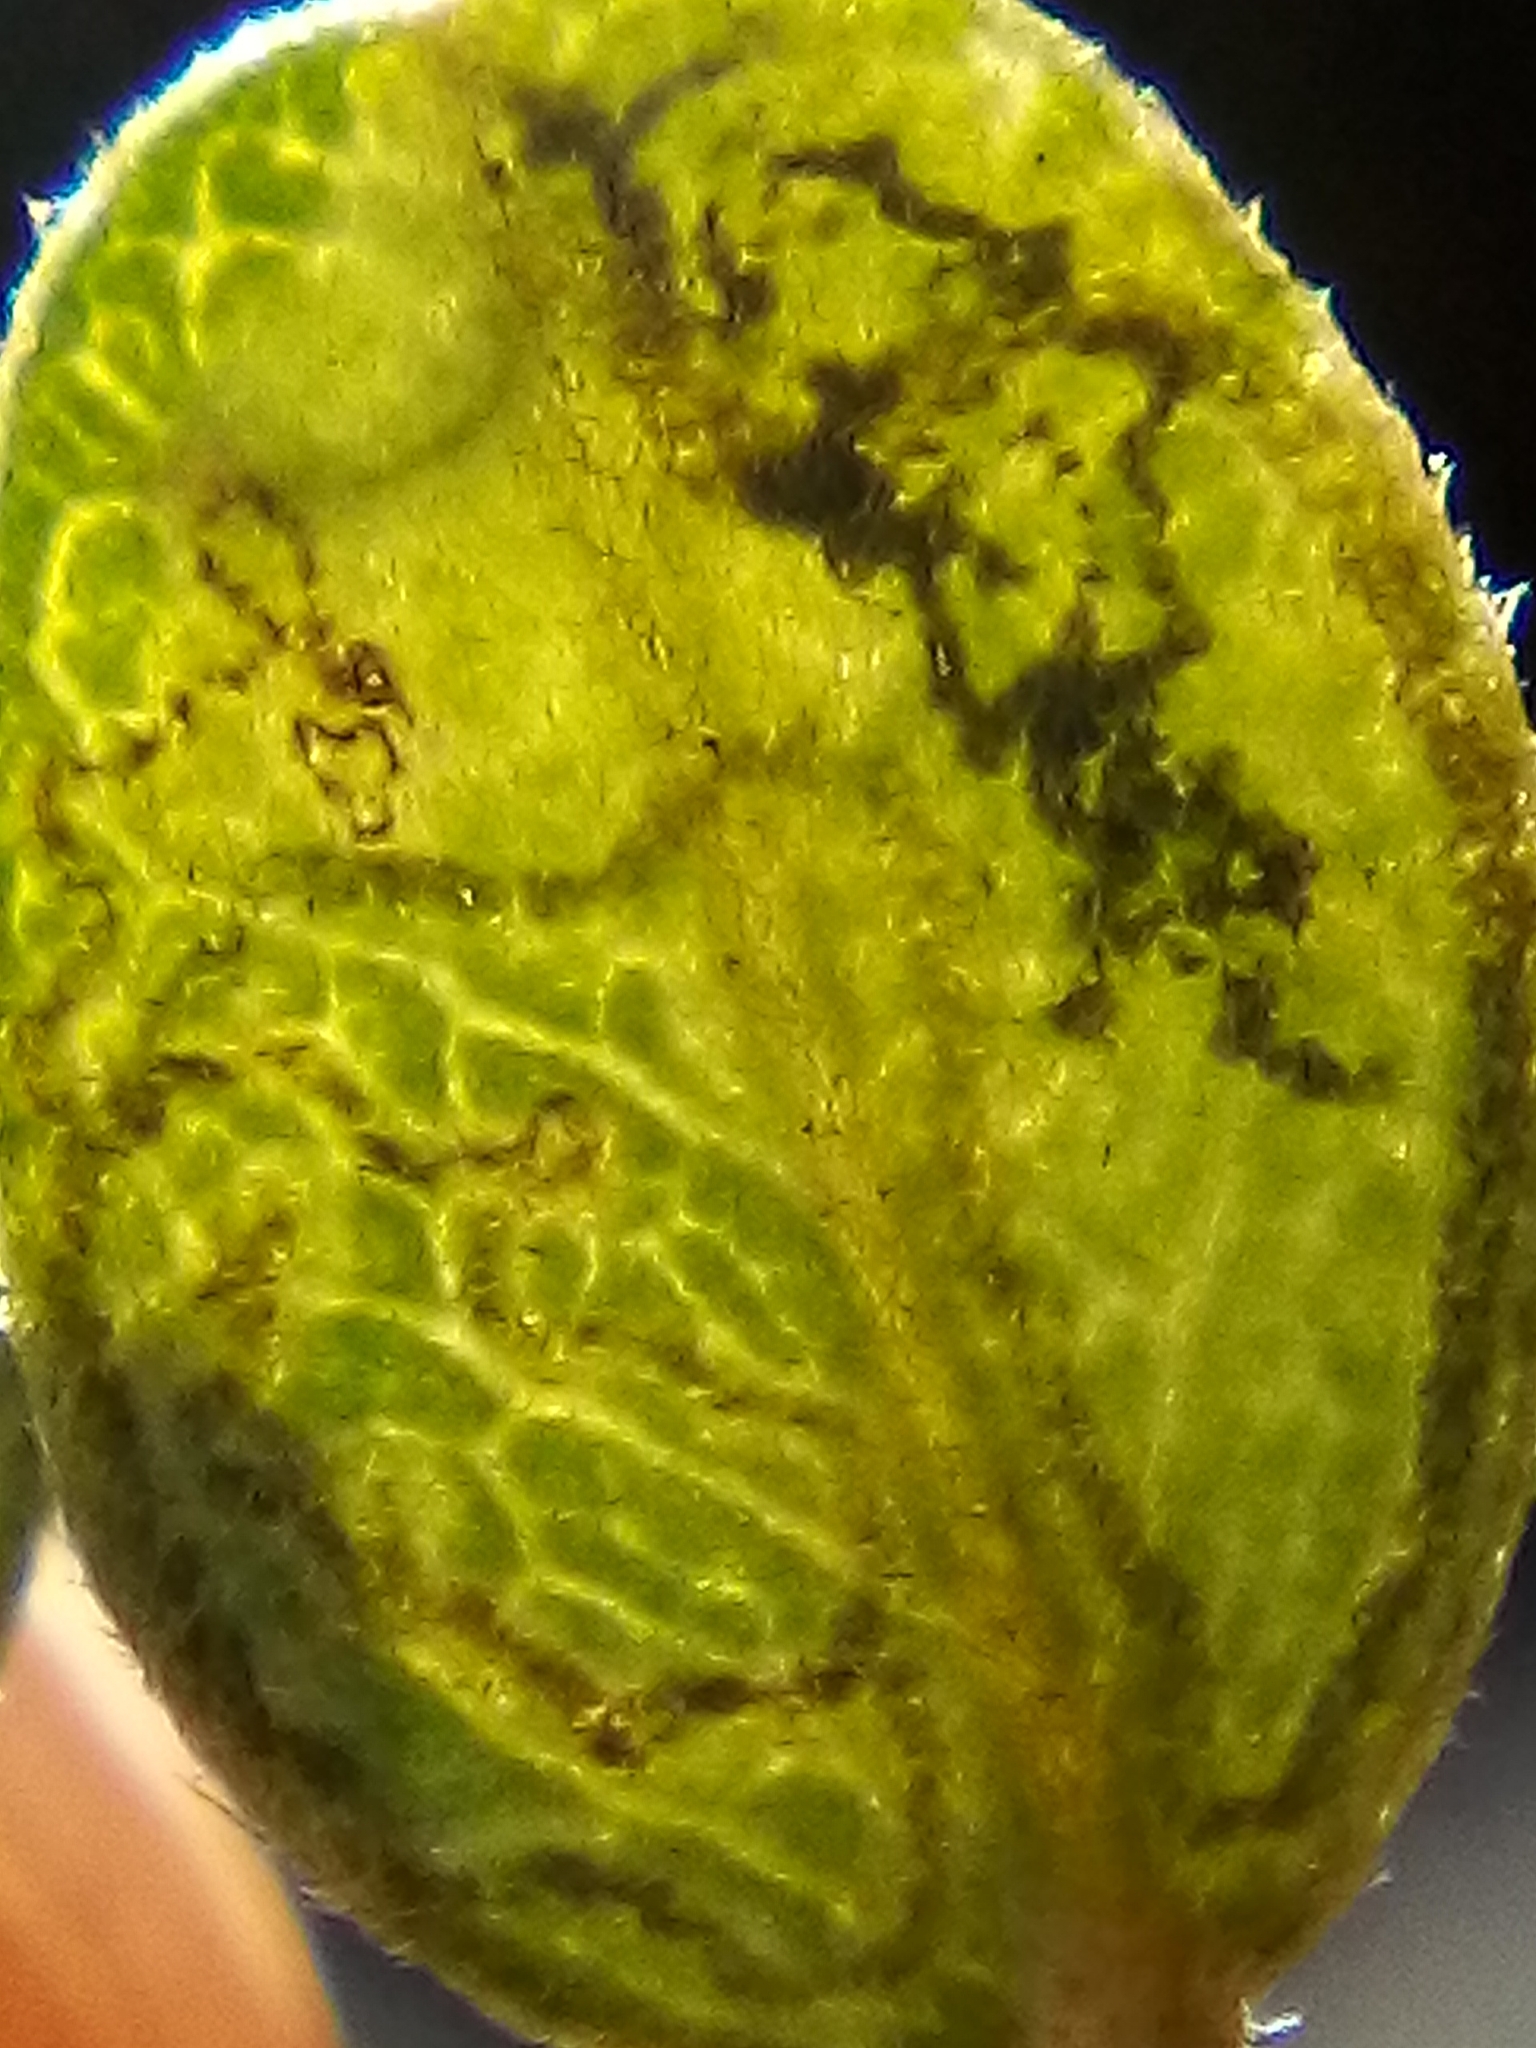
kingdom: Animalia
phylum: Arthropoda
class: Insecta
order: Lepidoptera
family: Nepticulidae
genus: Stigmella
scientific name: Stigmella sophorae
